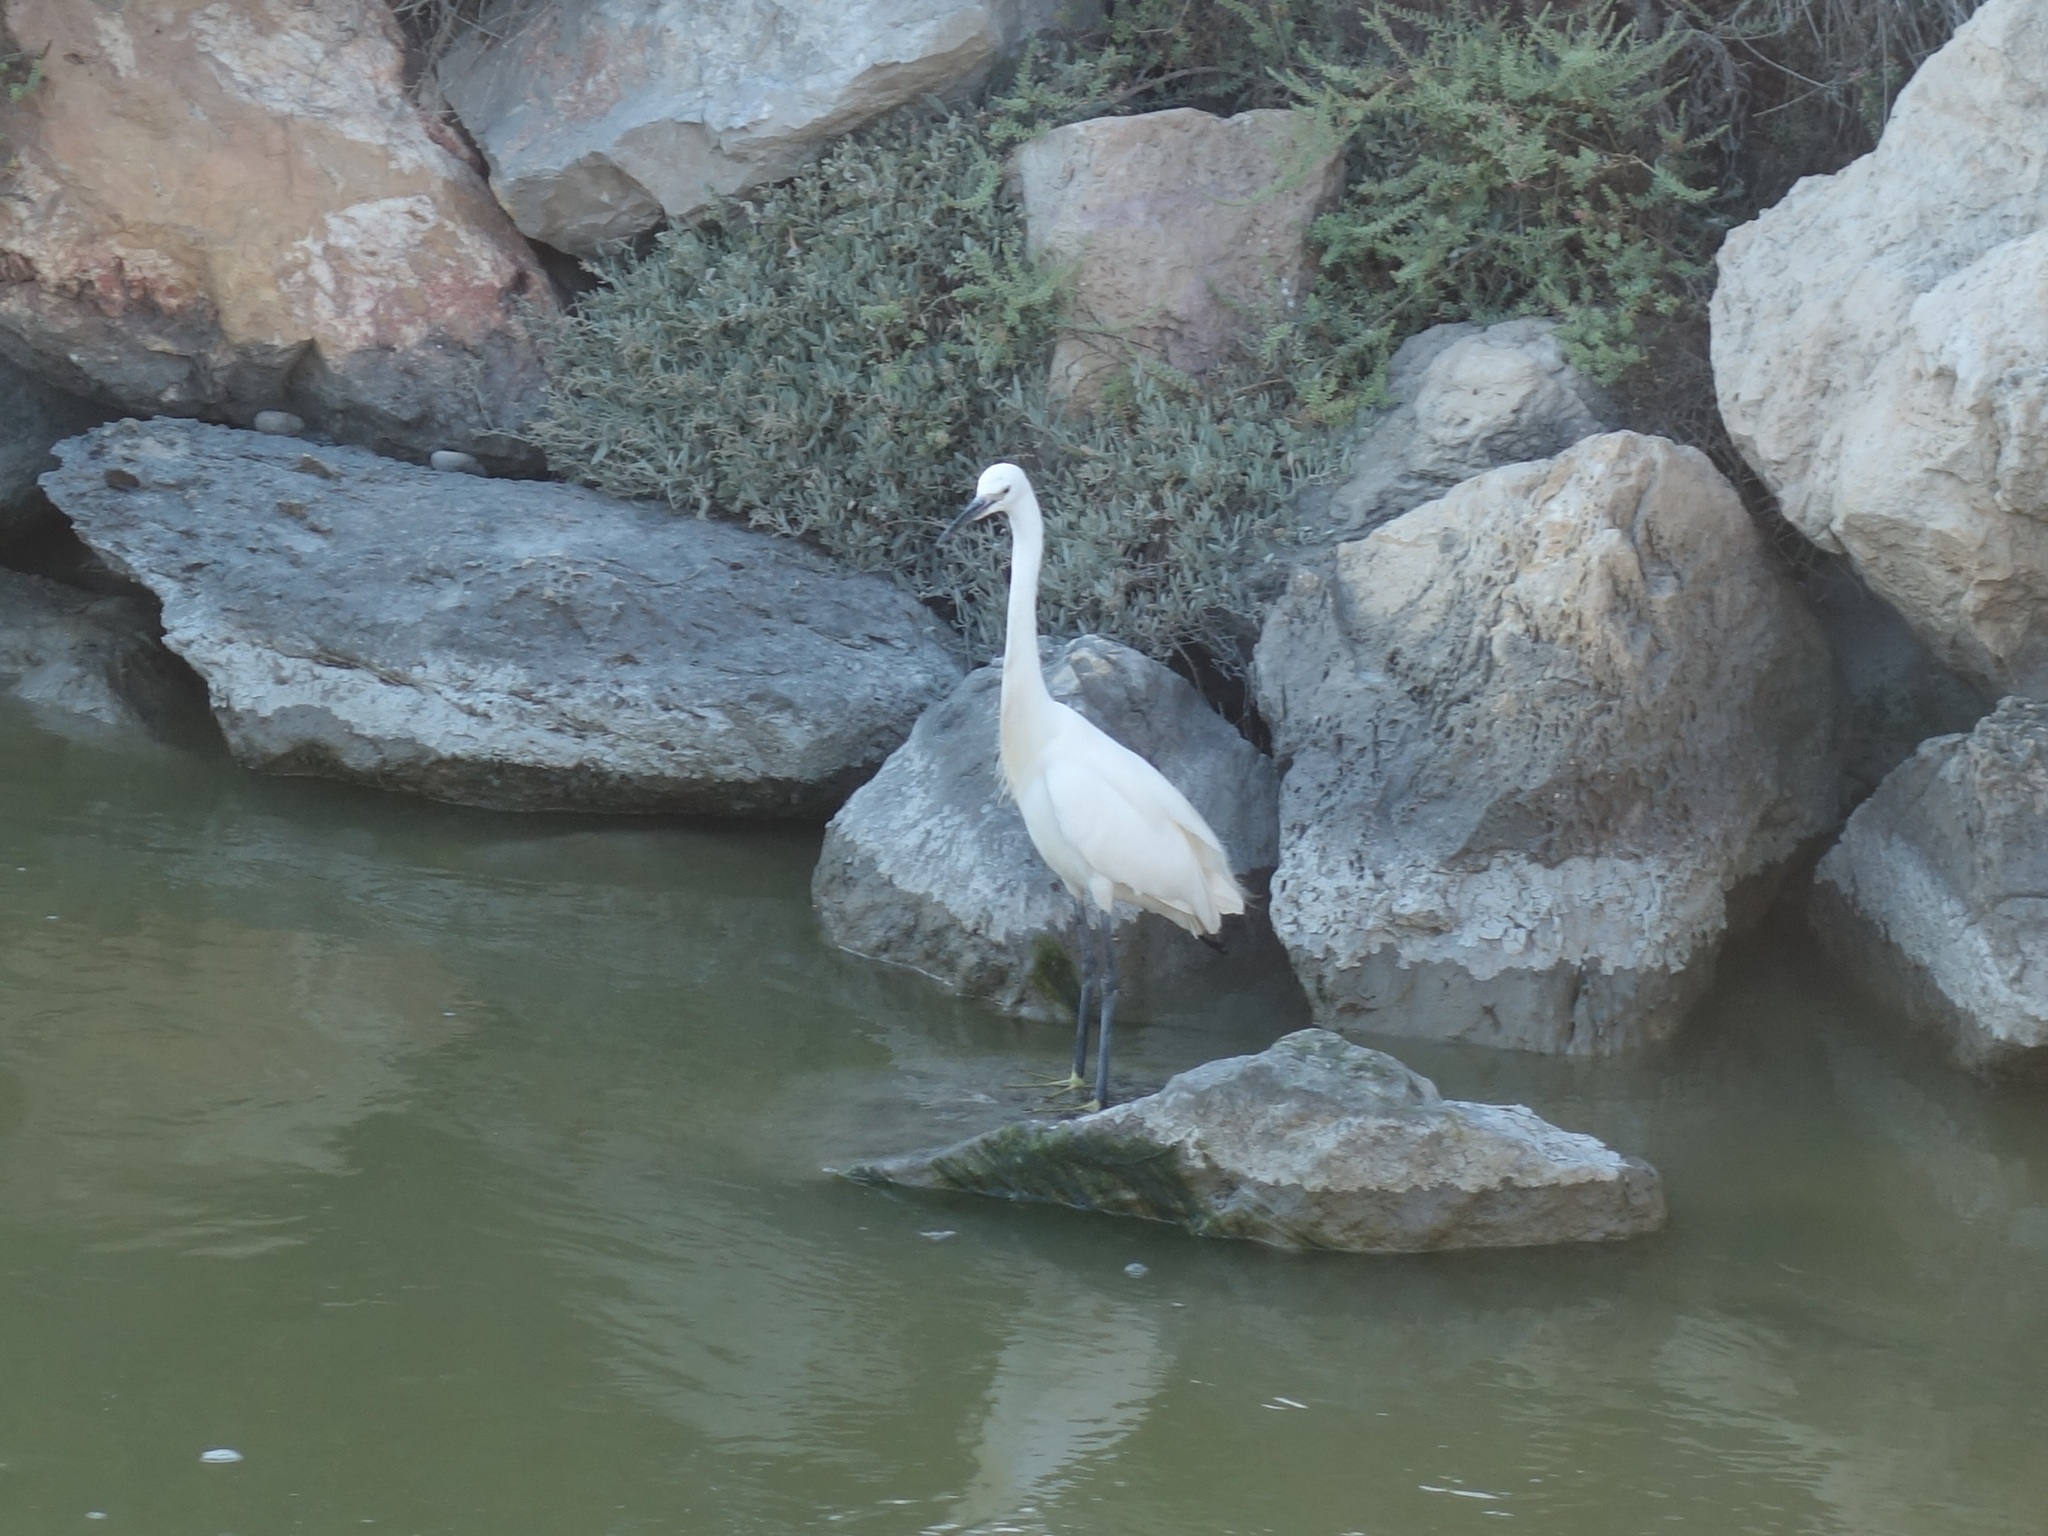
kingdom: Animalia
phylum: Chordata
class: Aves
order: Pelecaniformes
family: Ardeidae
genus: Egretta
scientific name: Egretta garzetta
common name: Little egret
